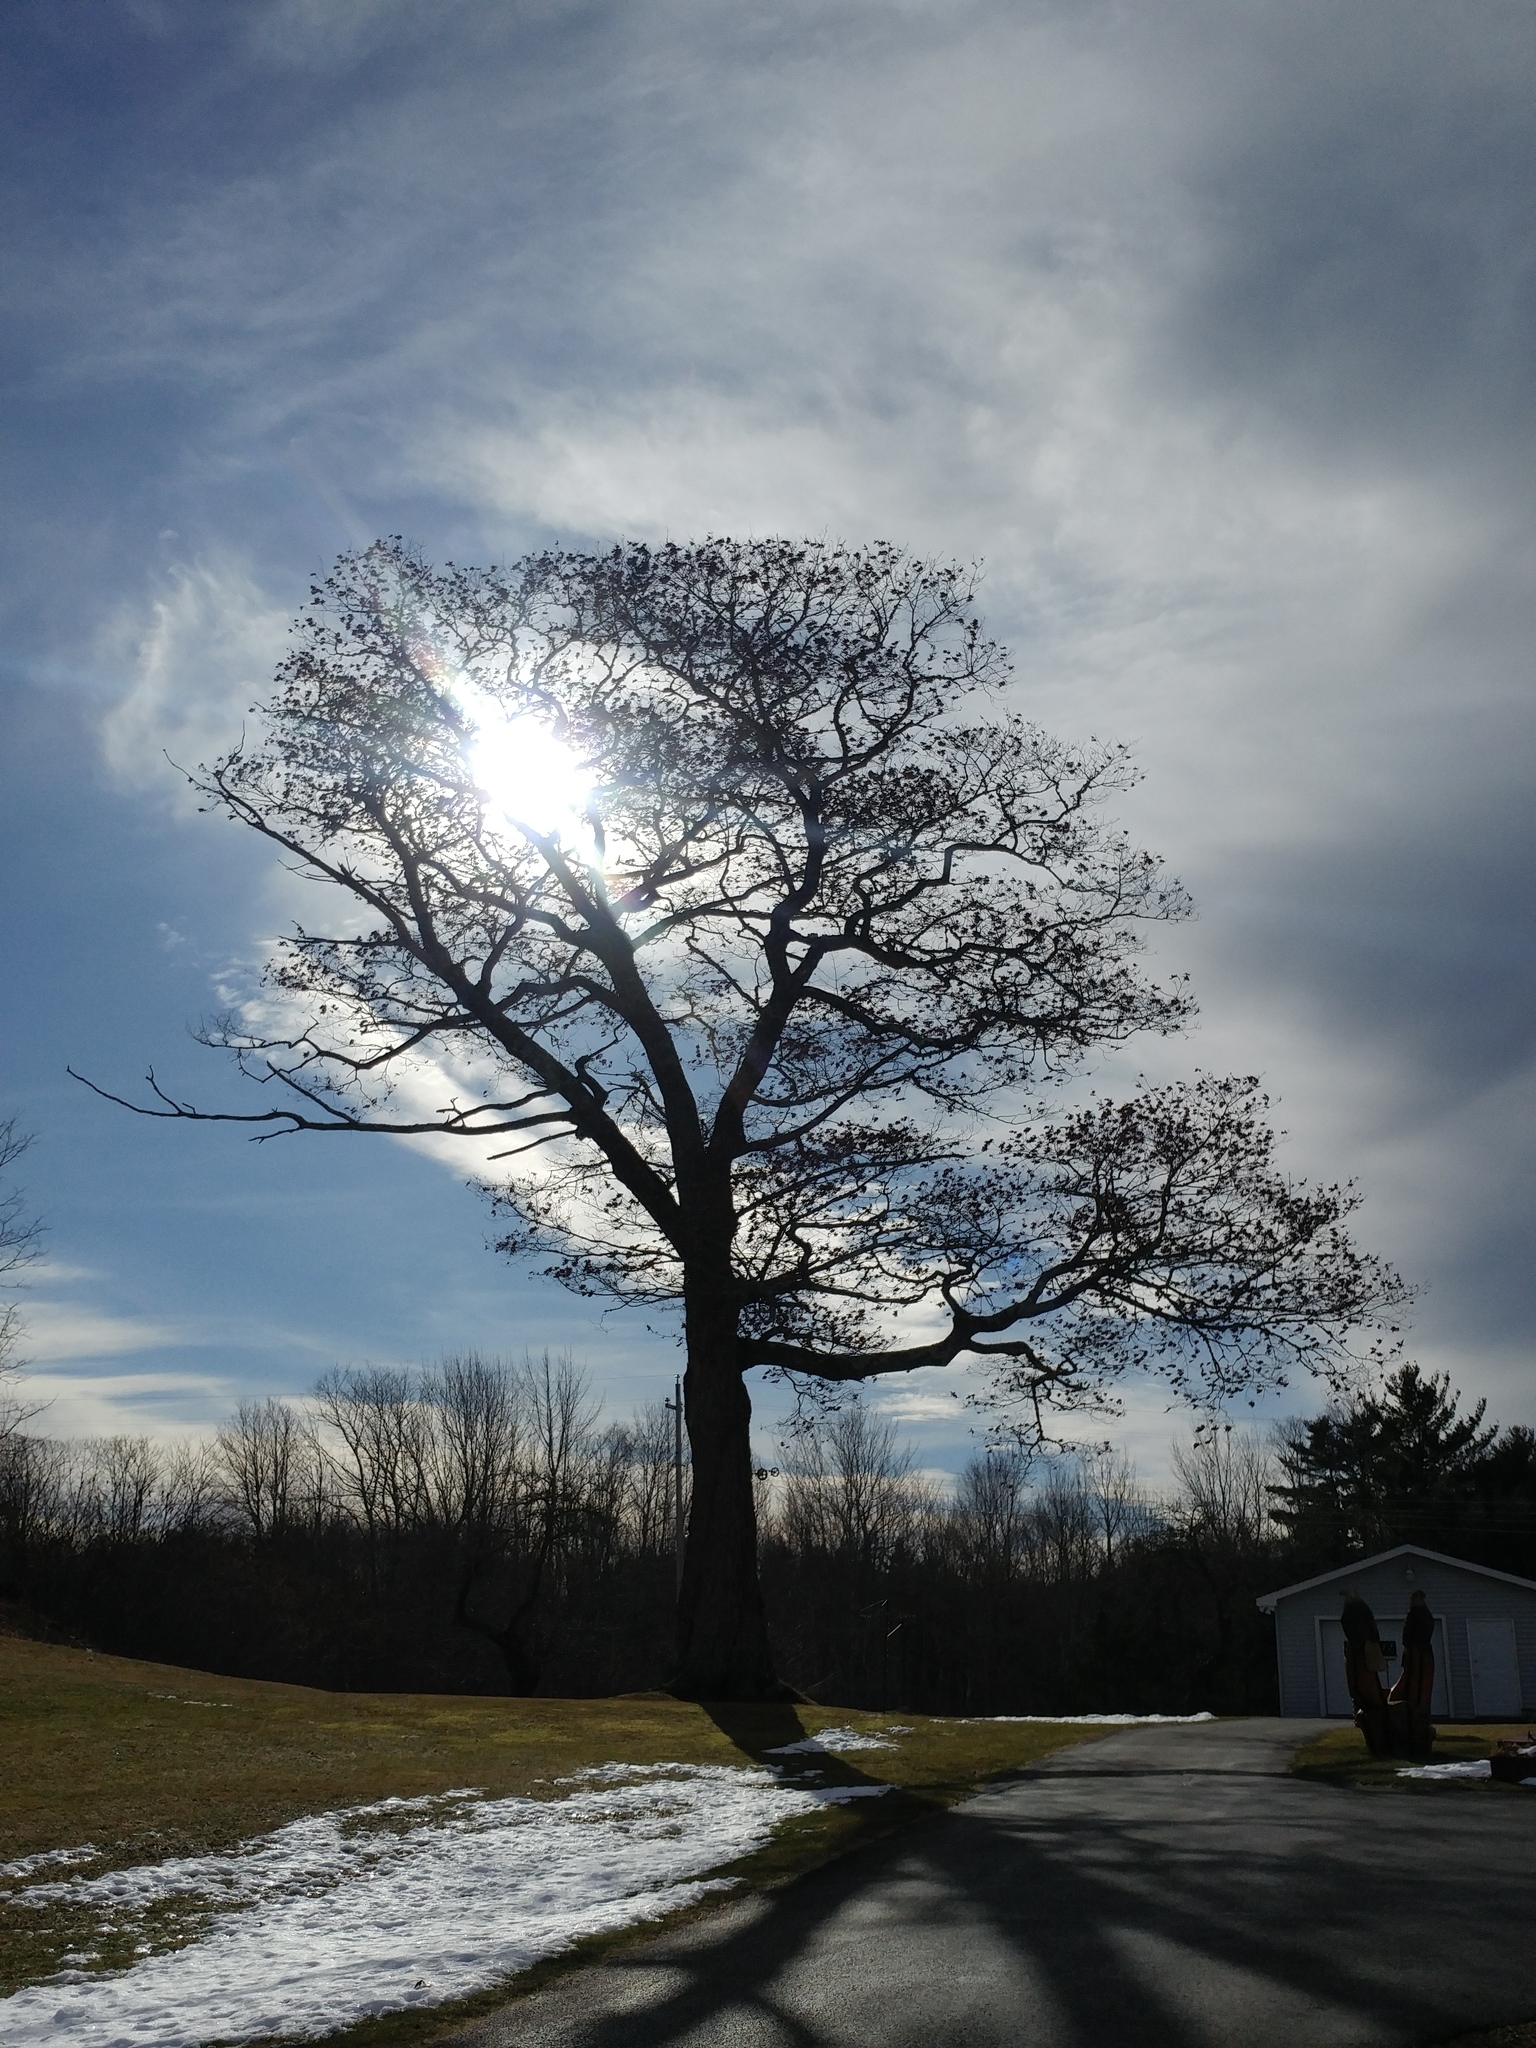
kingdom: Plantae
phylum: Tracheophyta
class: Magnoliopsida
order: Fagales
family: Fagaceae
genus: Quercus
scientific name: Quercus rubra
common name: Red oak
